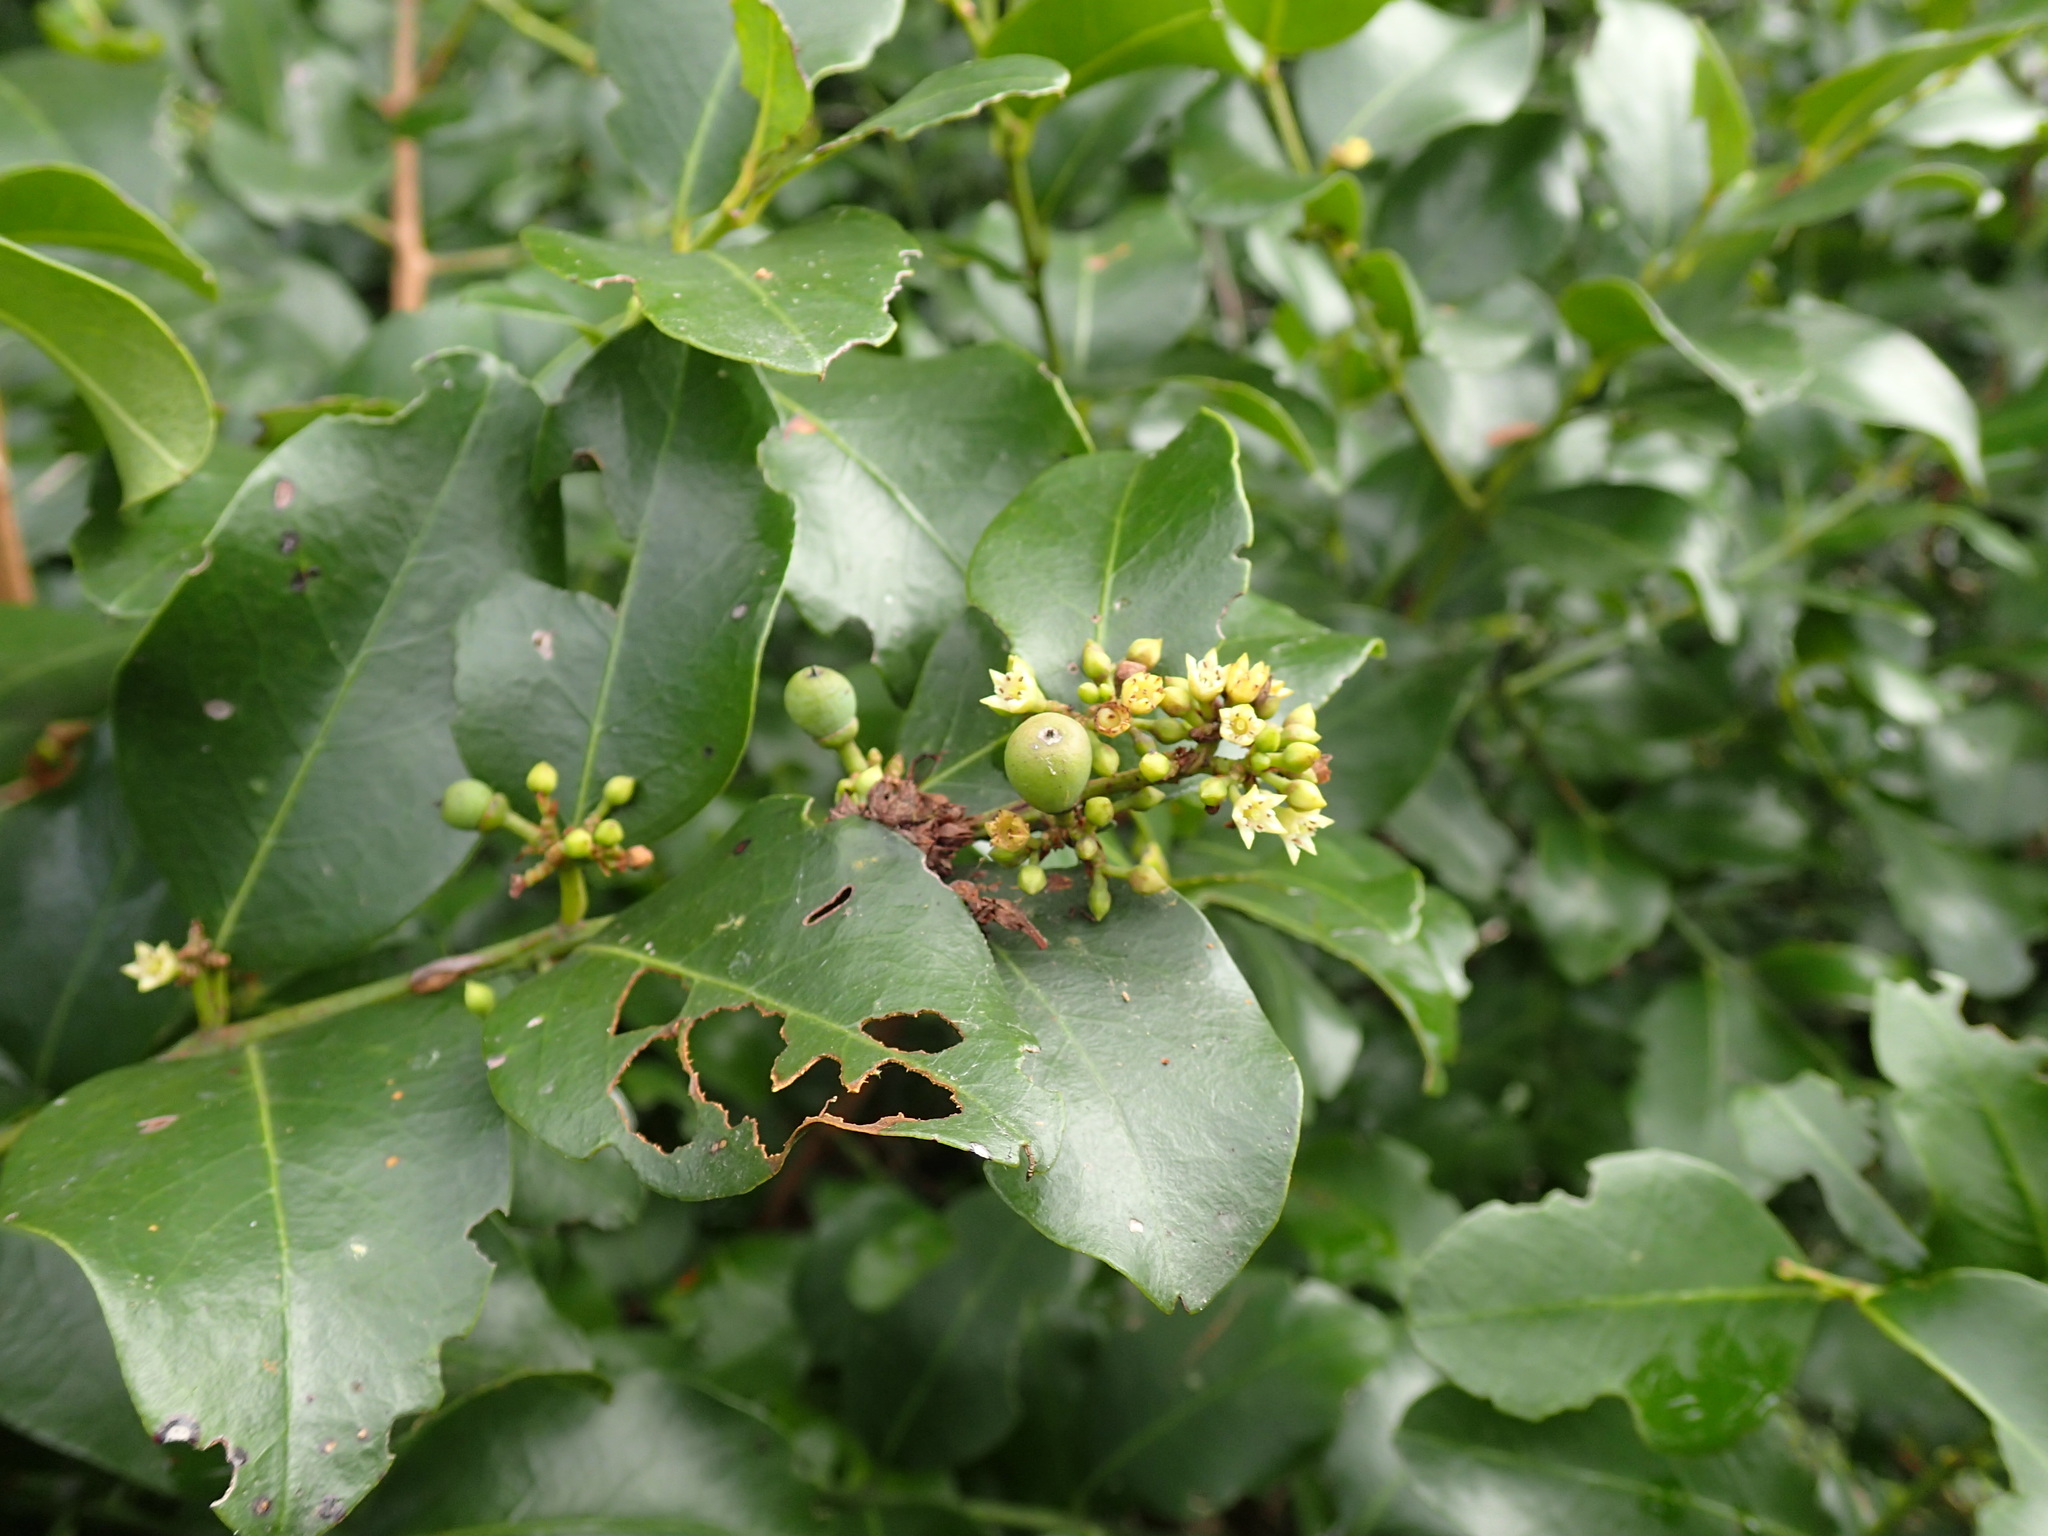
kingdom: Plantae
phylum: Tracheophyta
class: Magnoliopsida
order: Rosales
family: Rhamnaceae
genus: Scutia
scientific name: Scutia myrtina
